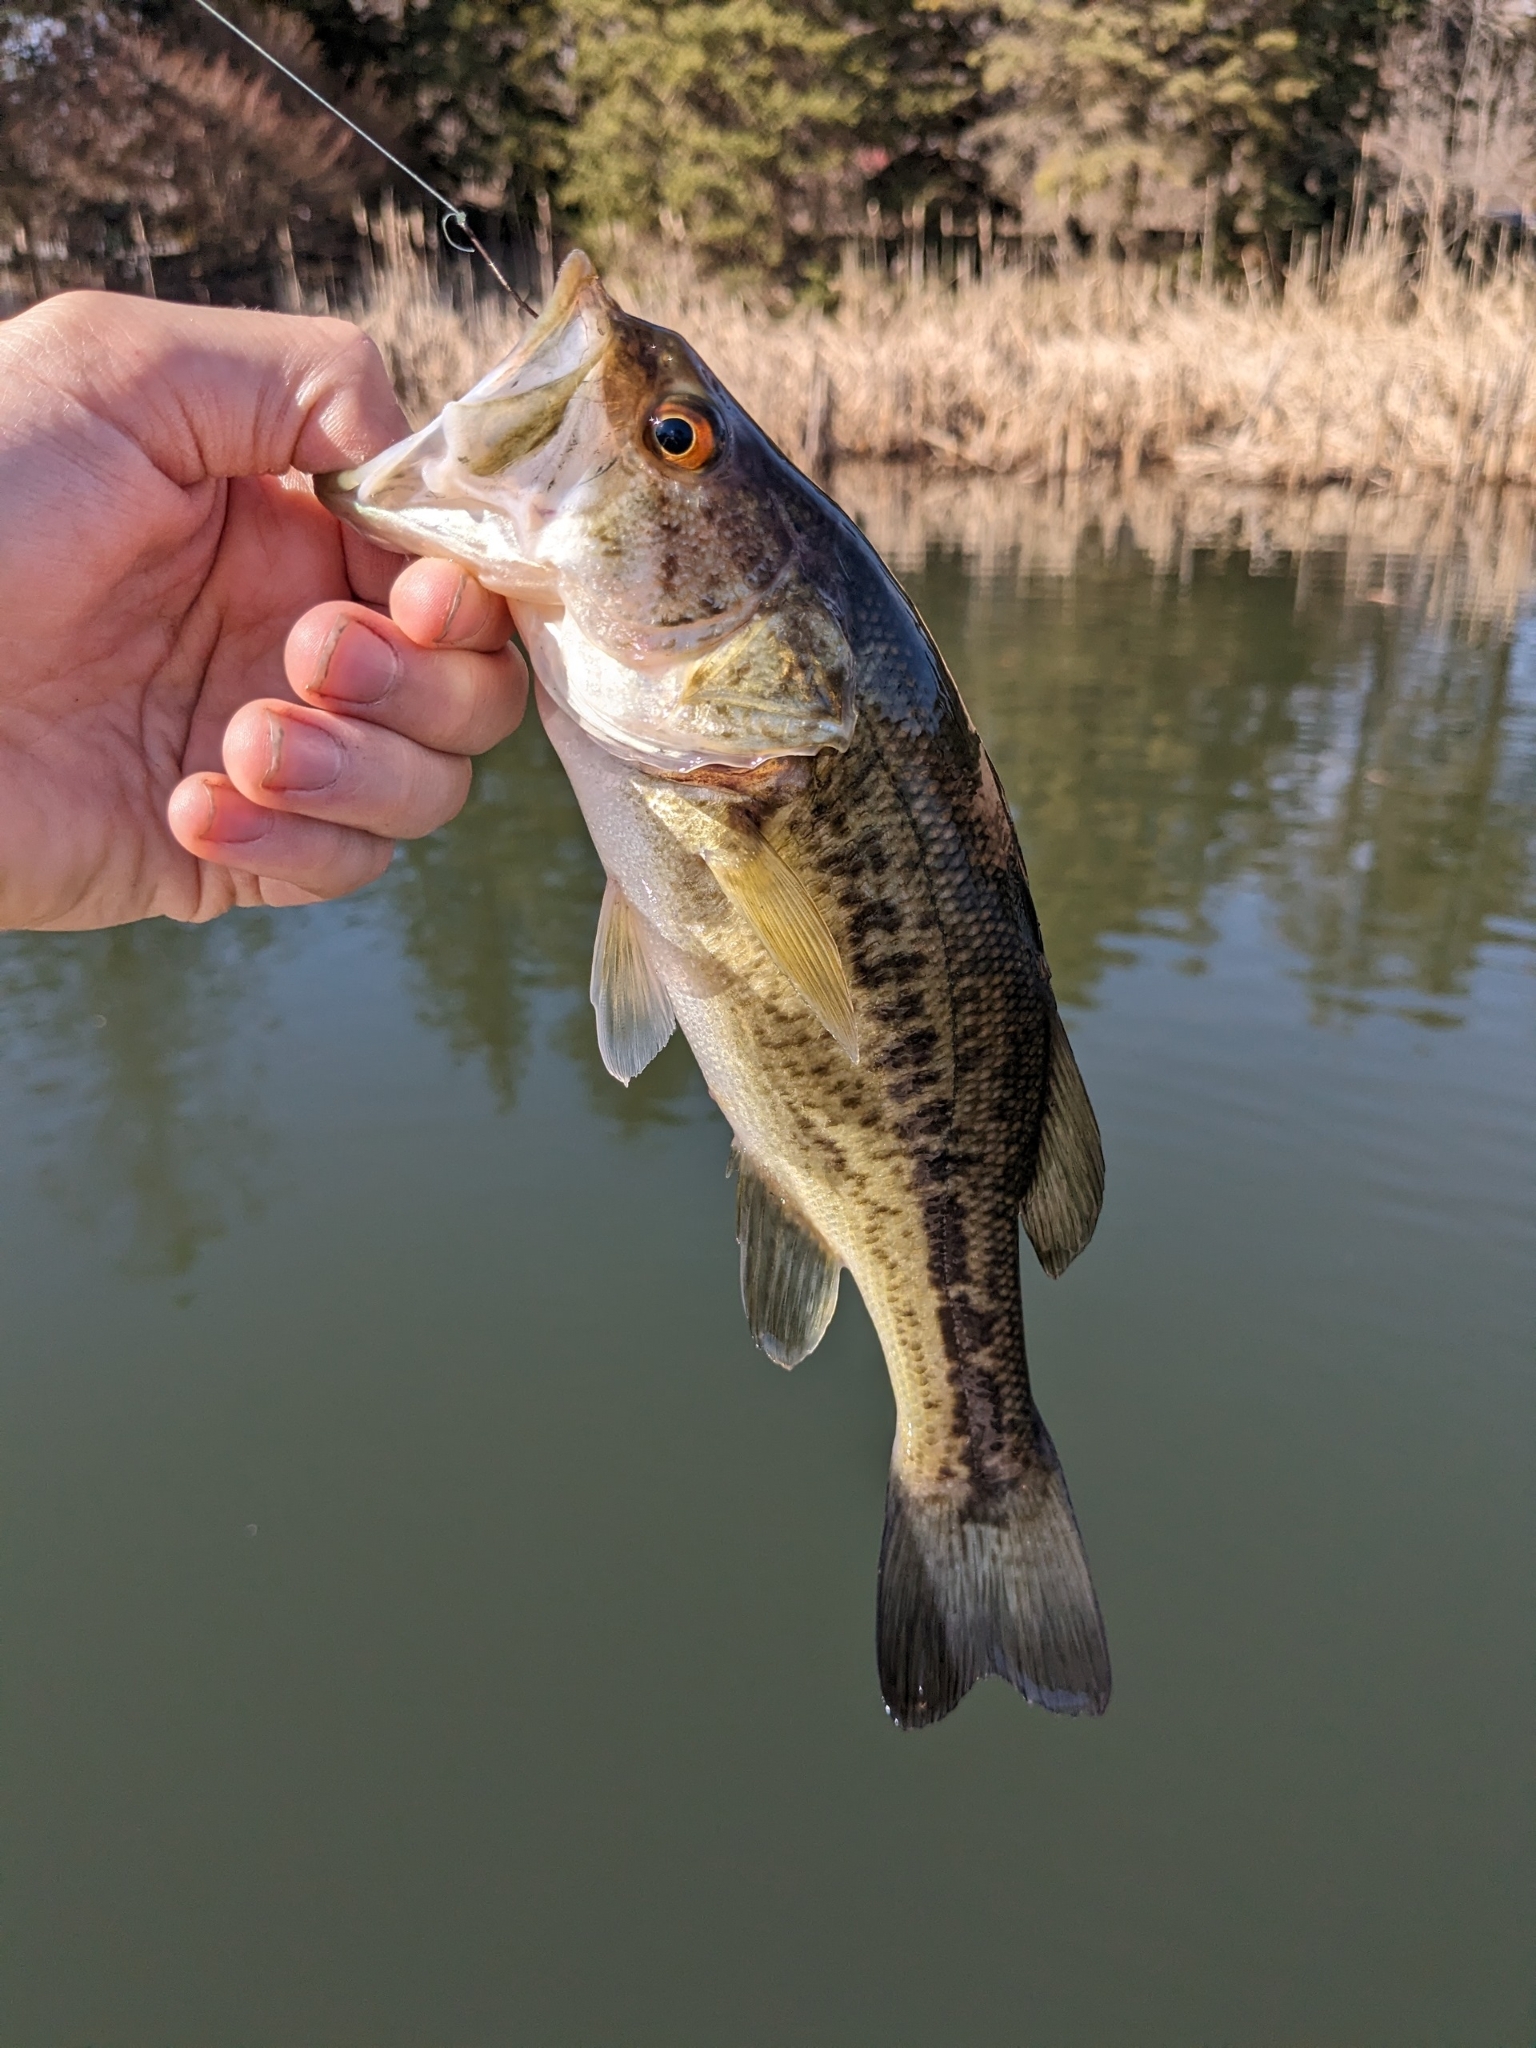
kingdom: Animalia
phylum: Chordata
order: Perciformes
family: Centrarchidae
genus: Micropterus
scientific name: Micropterus
